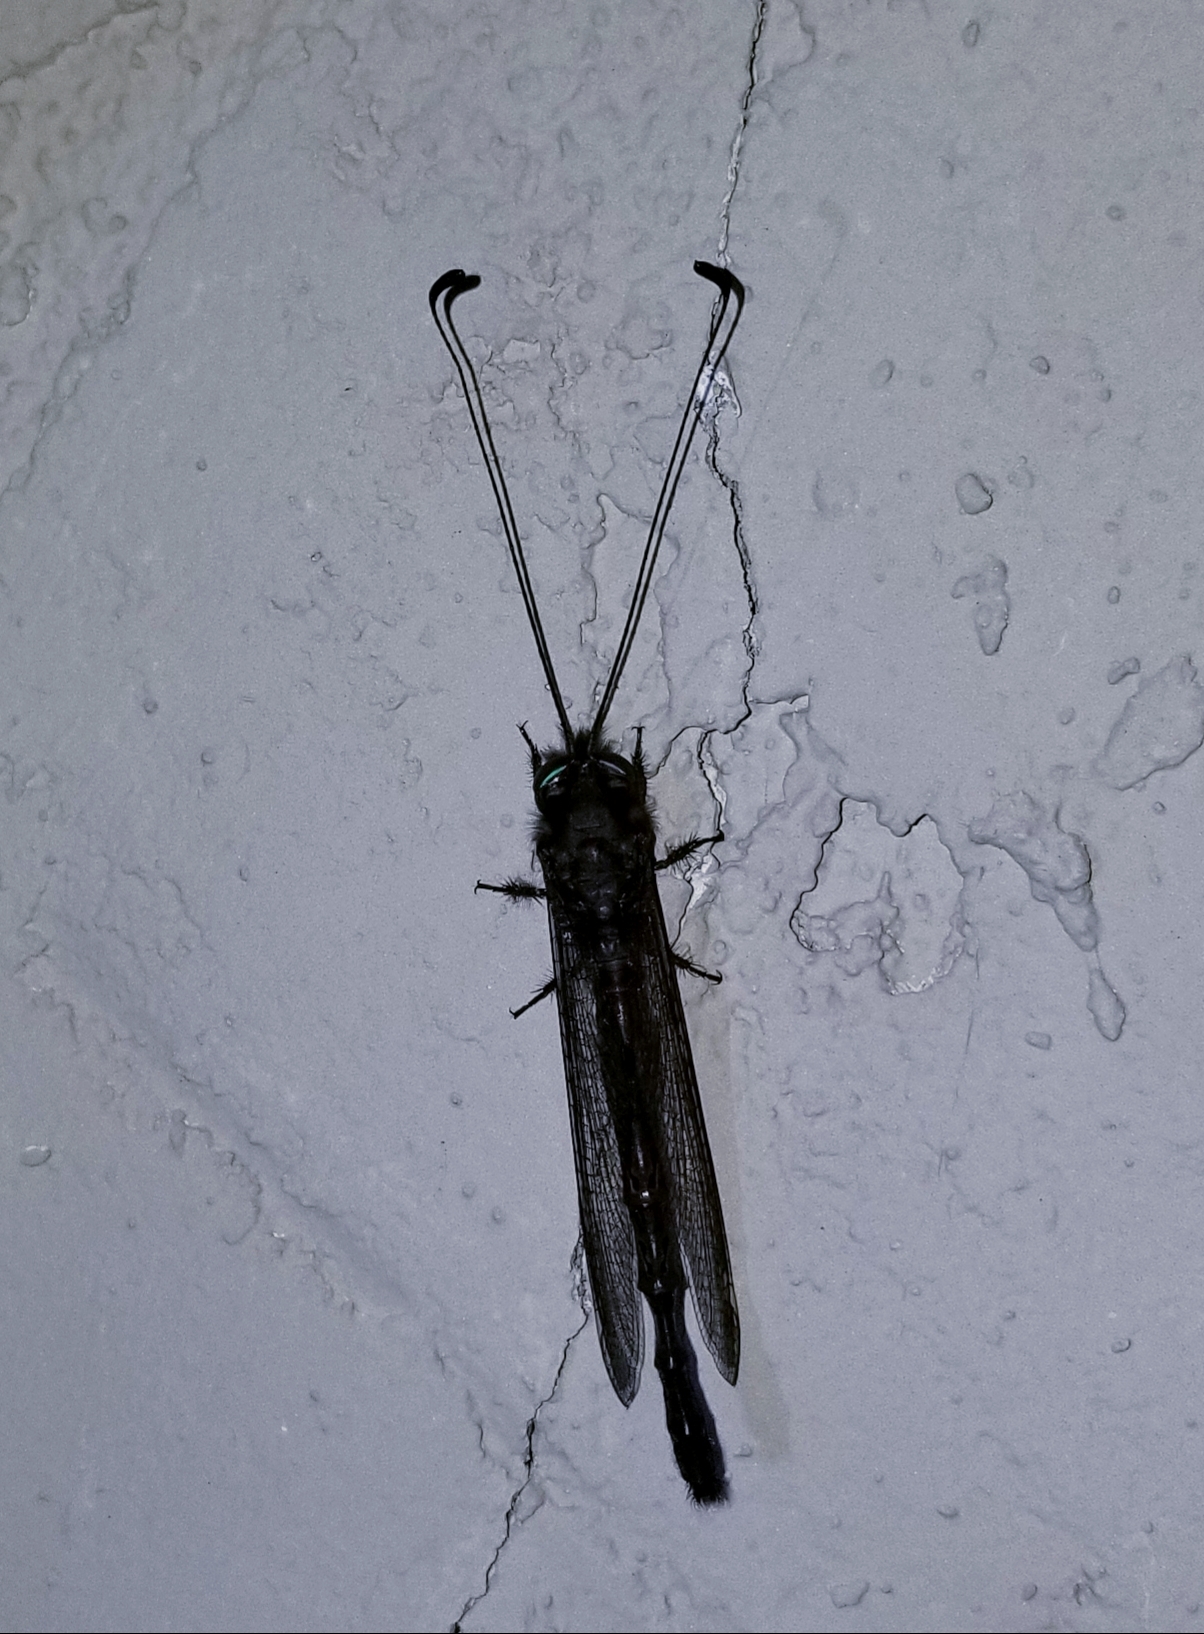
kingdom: Animalia
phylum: Arthropoda
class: Insecta
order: Neuroptera
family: Ascalaphidae
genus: Ululodes
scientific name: Ululodes quadripunctatus
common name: Four-spotted owlfly
